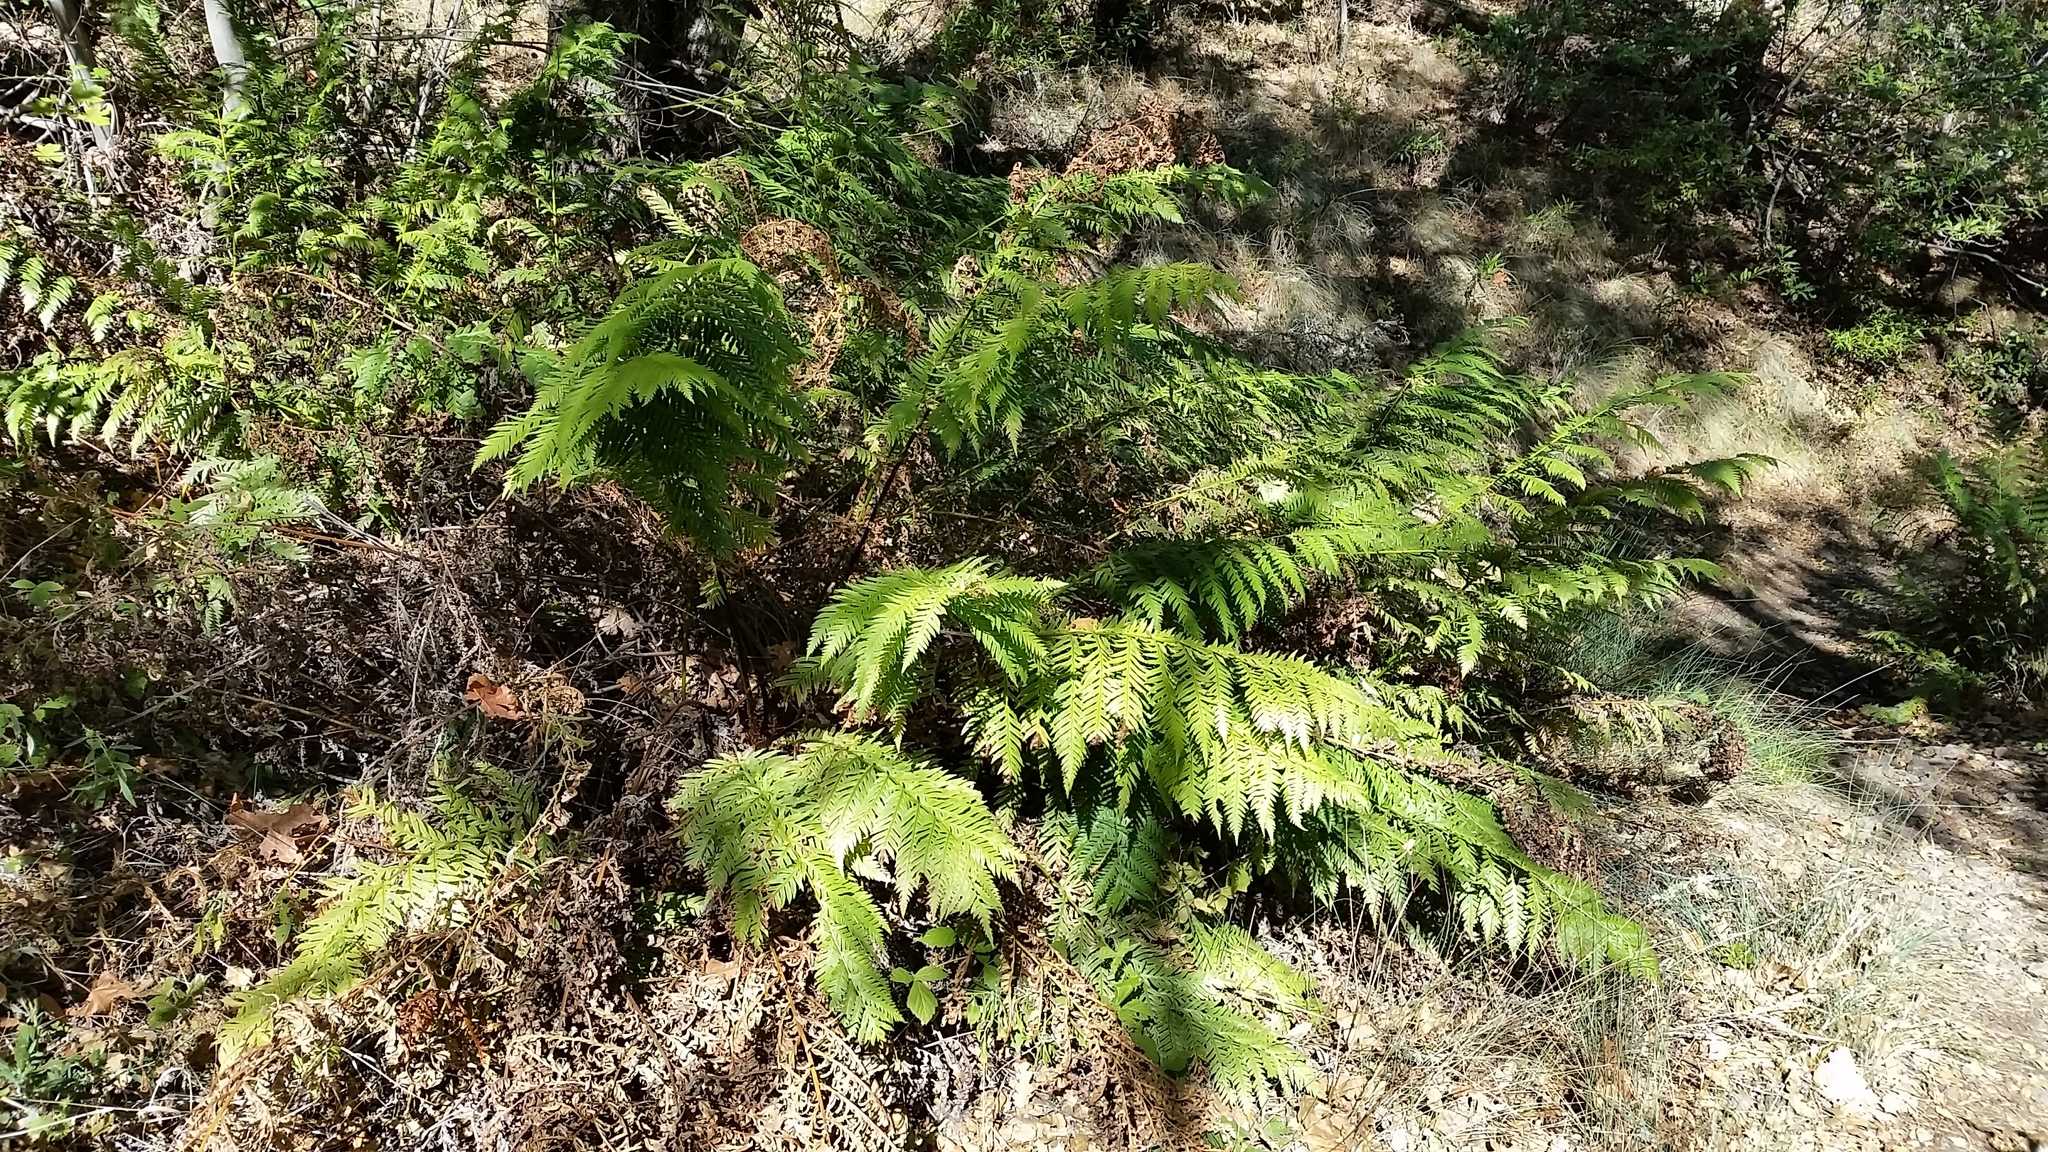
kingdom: Plantae
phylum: Tracheophyta
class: Polypodiopsida
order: Polypodiales
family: Blechnaceae
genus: Woodwardia
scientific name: Woodwardia fimbriata
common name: Giant chain fern
